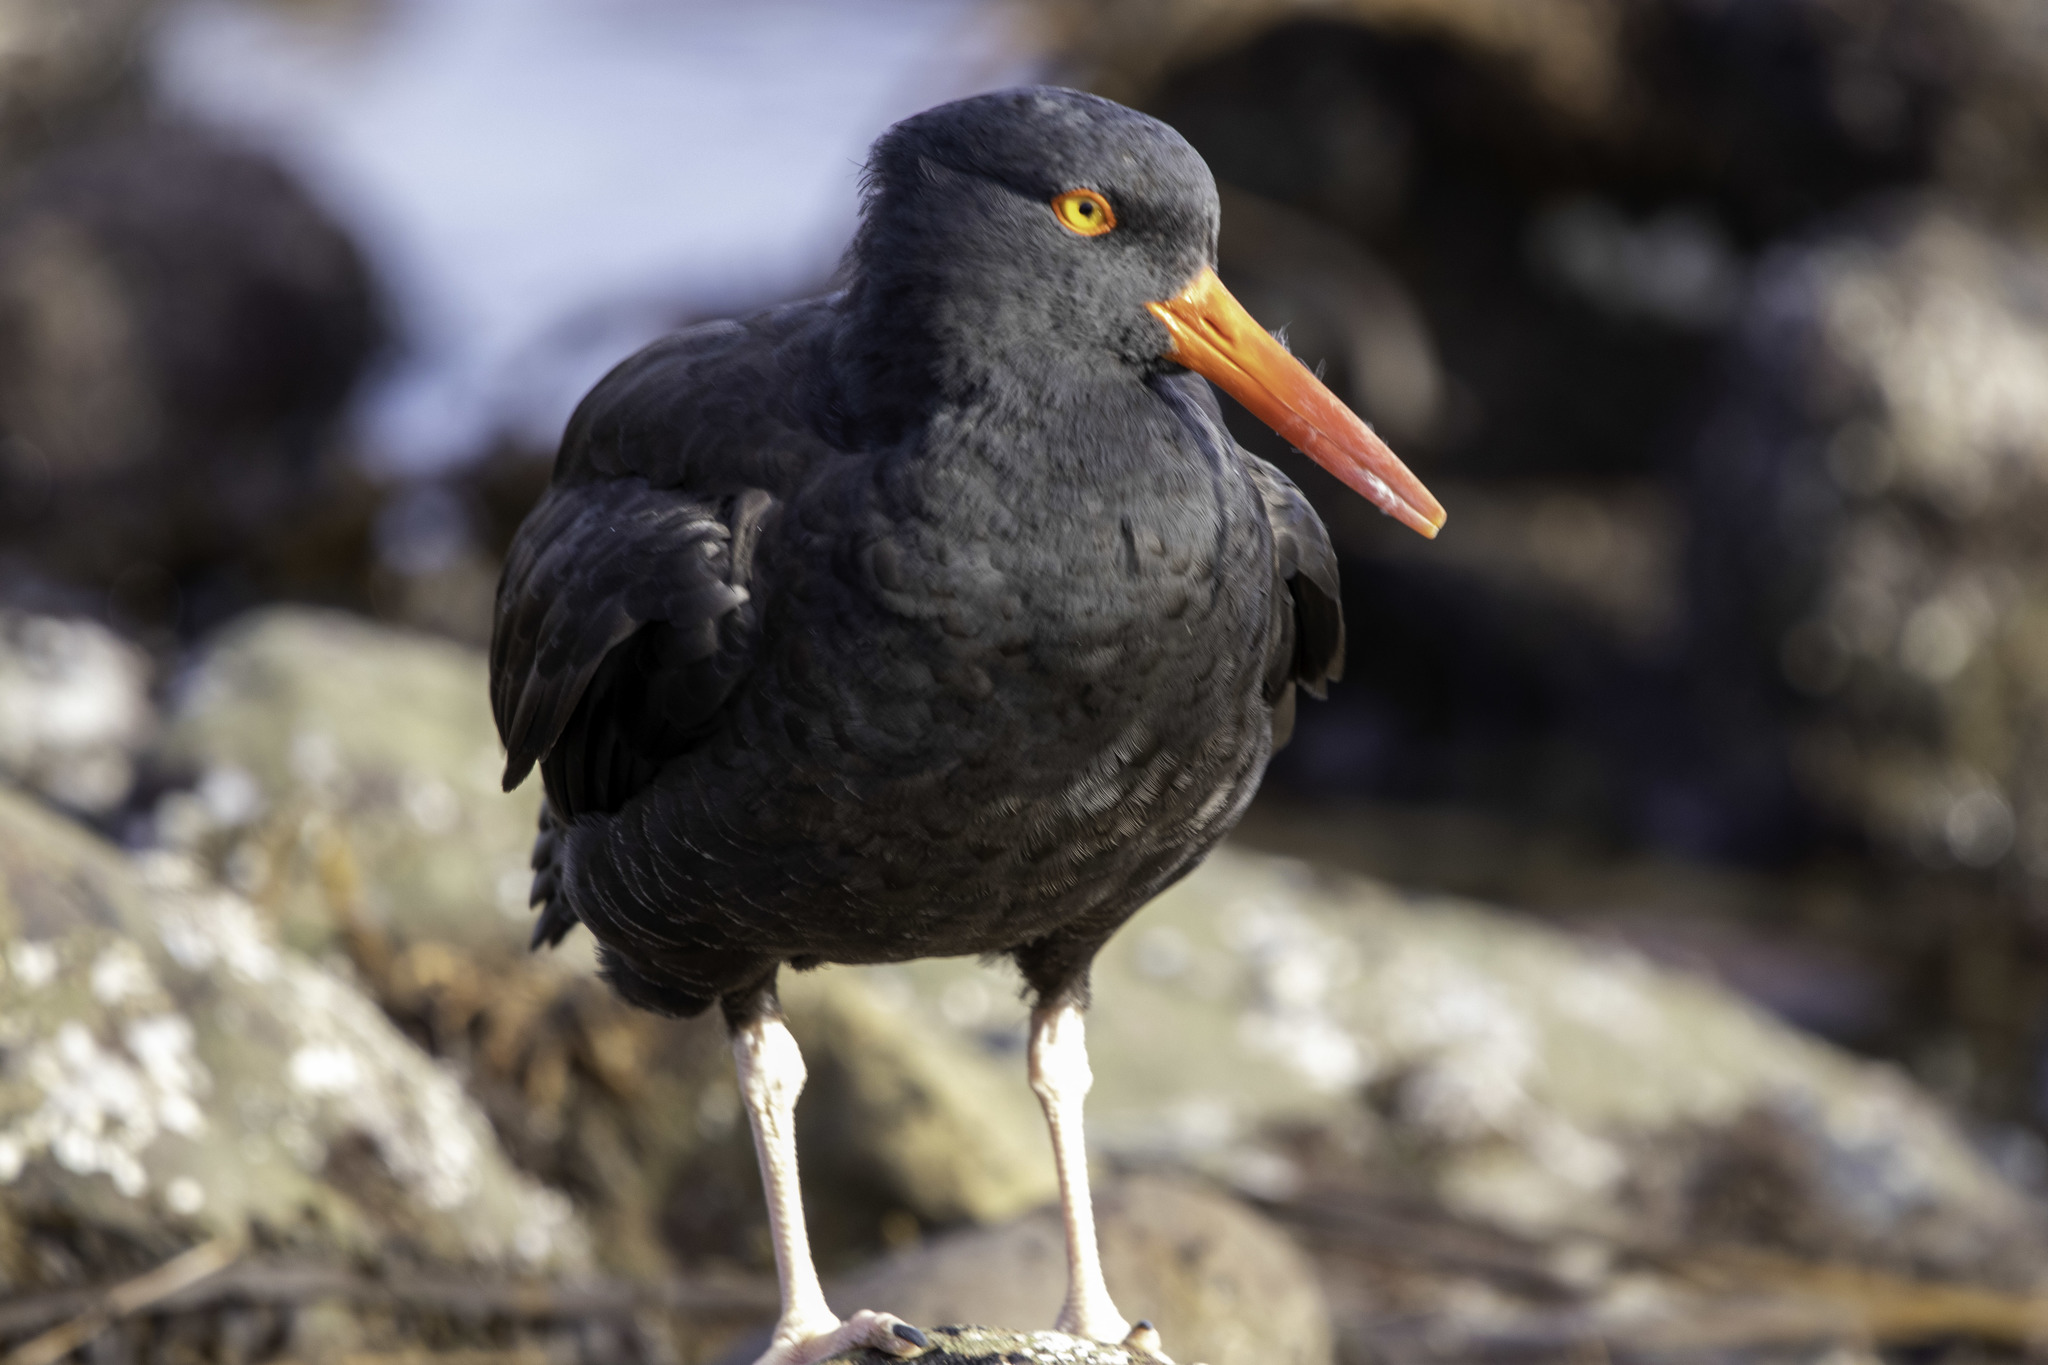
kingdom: Animalia
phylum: Chordata
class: Aves
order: Charadriiformes
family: Haematopodidae
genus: Haematopus
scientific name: Haematopus bachmani
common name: Black oystercatcher
